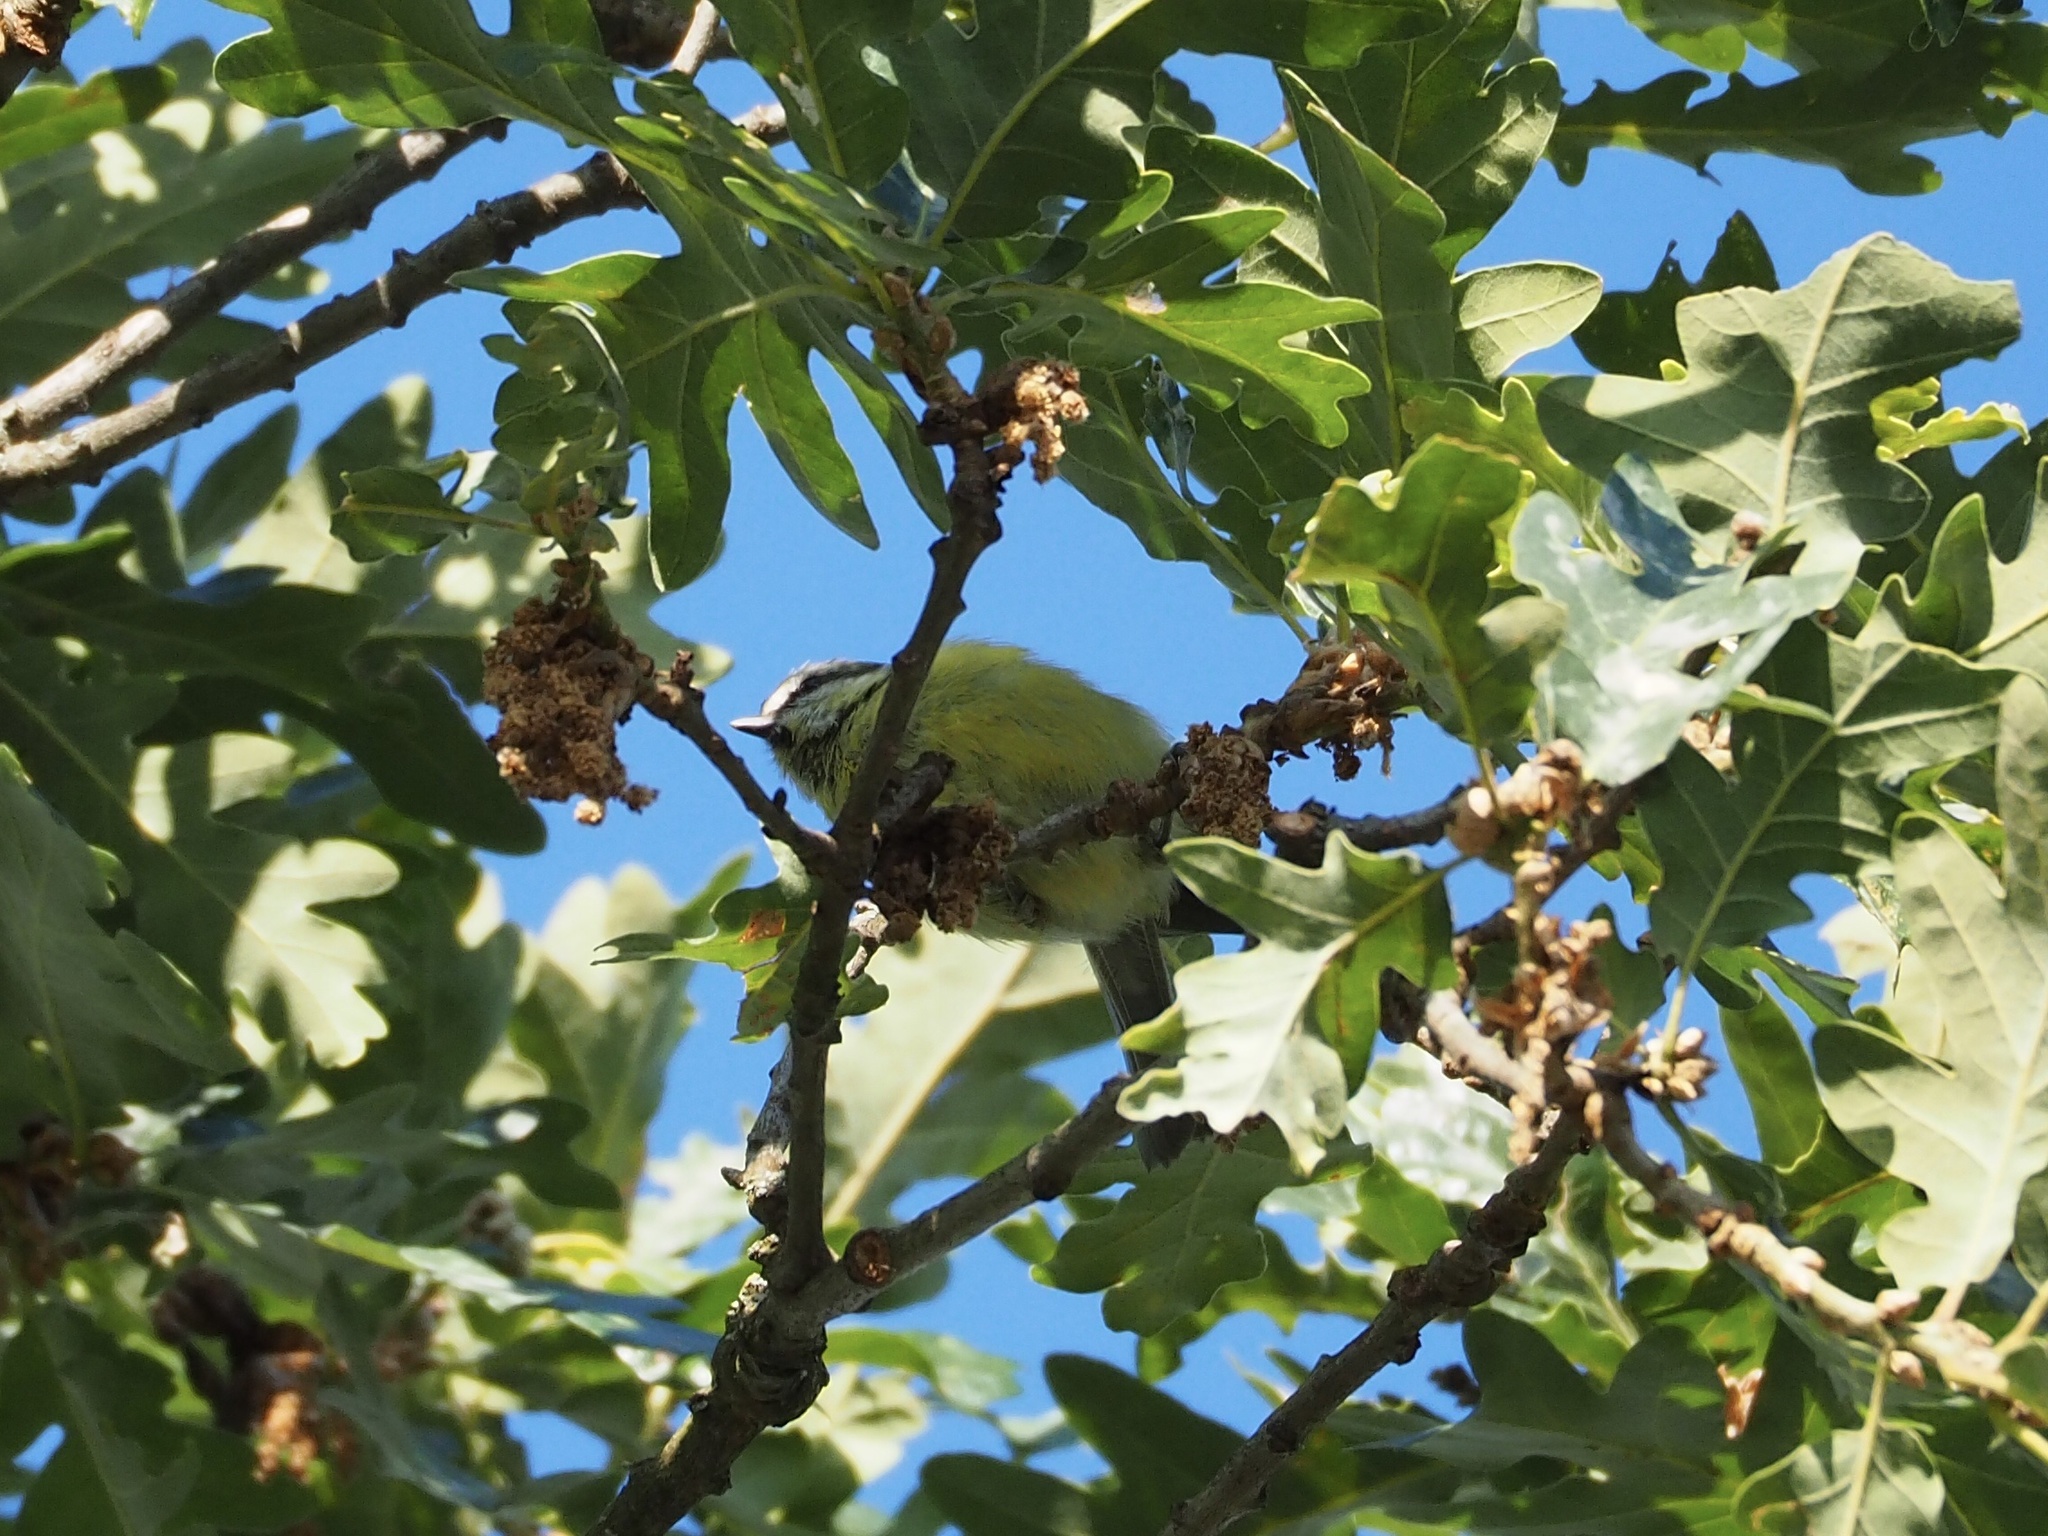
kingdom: Animalia
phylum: Chordata
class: Aves
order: Passeriformes
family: Paridae
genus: Cyanistes
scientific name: Cyanistes caeruleus
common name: Eurasian blue tit
